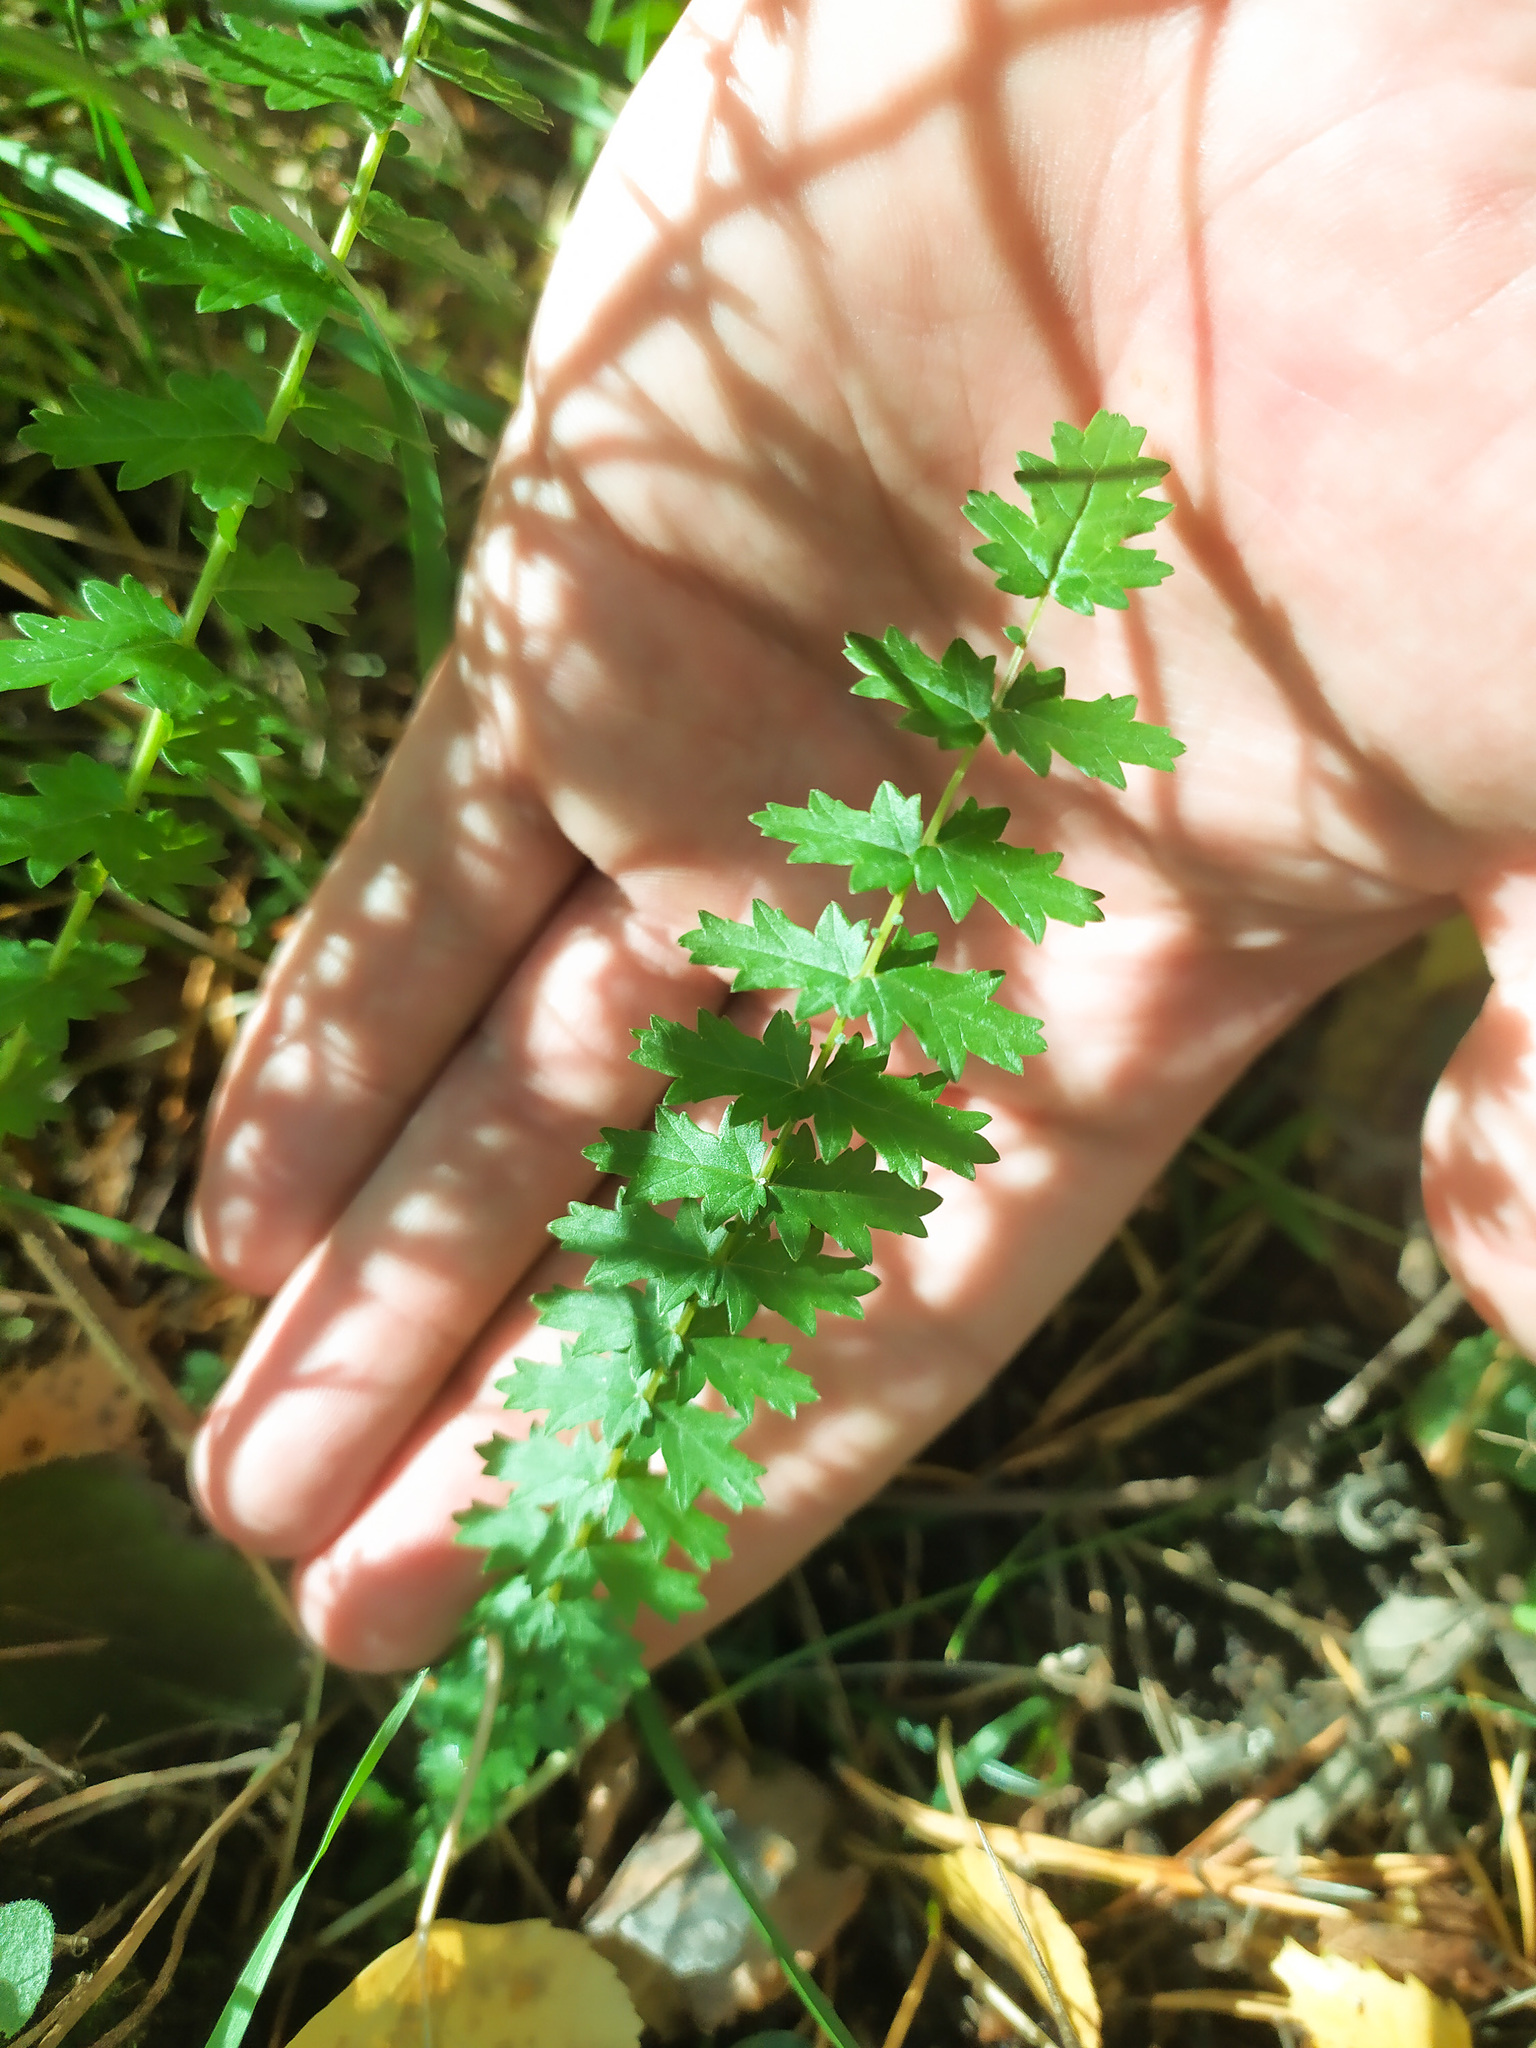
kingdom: Plantae
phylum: Tracheophyta
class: Magnoliopsida
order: Rosales
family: Rosaceae
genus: Filipendula
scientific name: Filipendula vulgaris
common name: Dropwort
